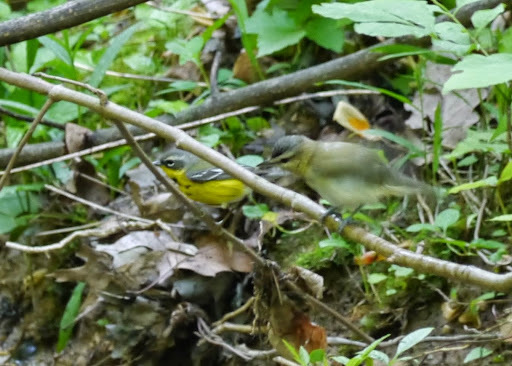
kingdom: Animalia
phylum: Chordata
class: Aves
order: Passeriformes
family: Vireonidae
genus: Vireo
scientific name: Vireo olivaceus
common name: Red-eyed vireo
